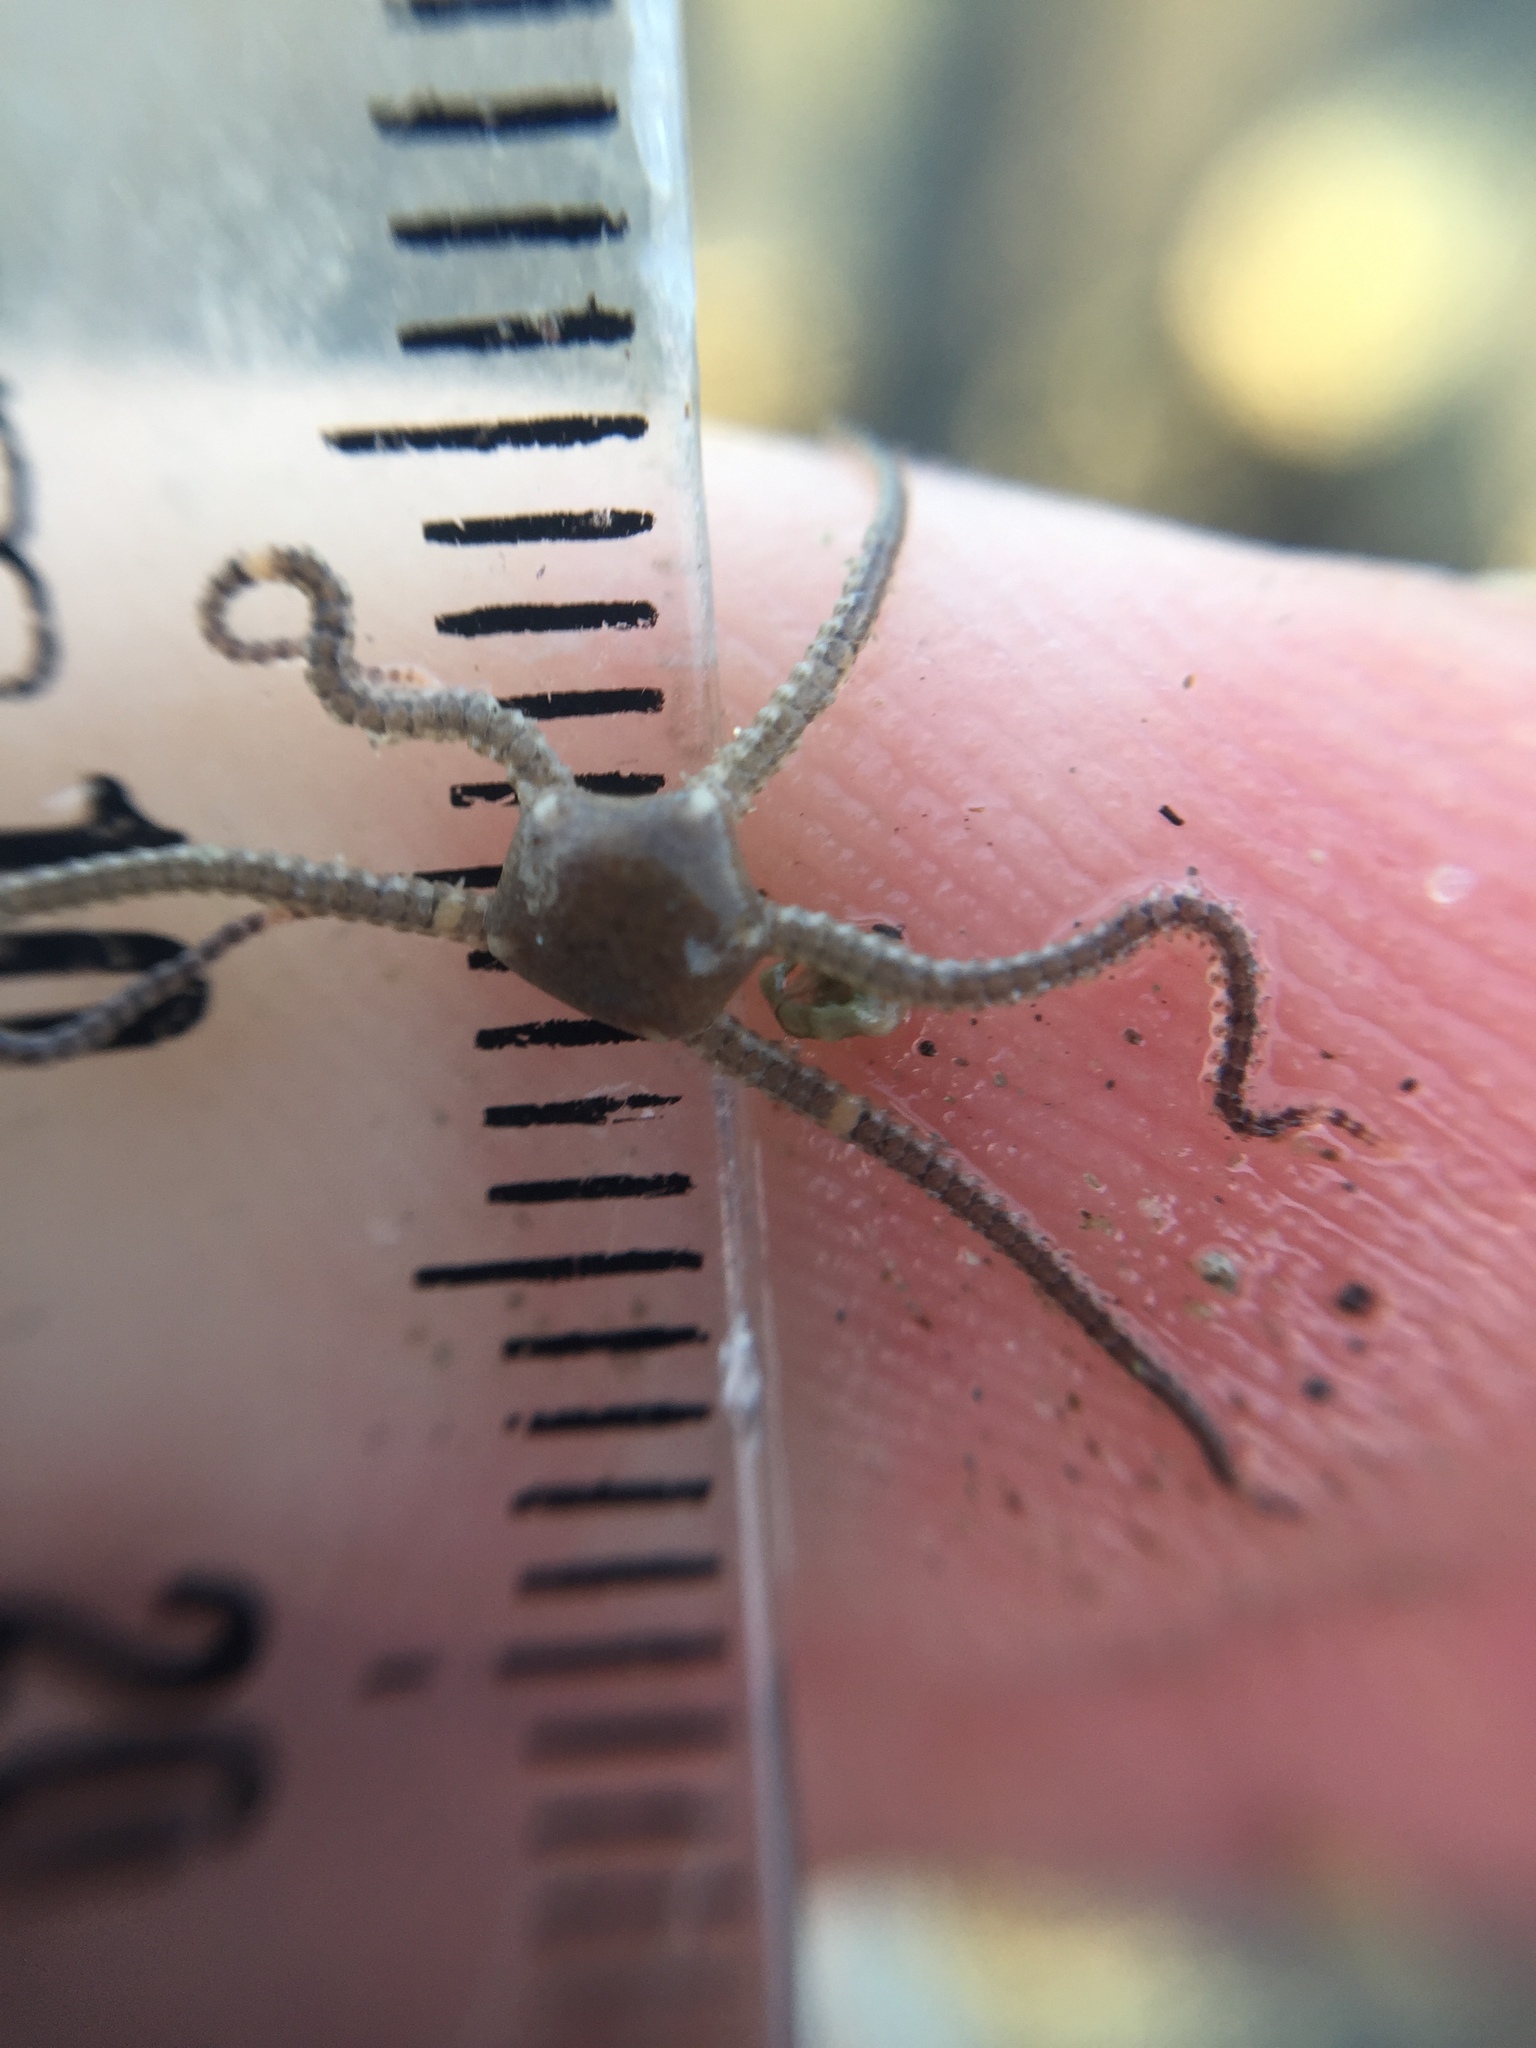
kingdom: Animalia
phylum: Echinodermata
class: Ophiuroidea
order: Amphilepidida
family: Amphiuridae
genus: Amphipholis
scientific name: Amphipholis squamata
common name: Brooding snake star
